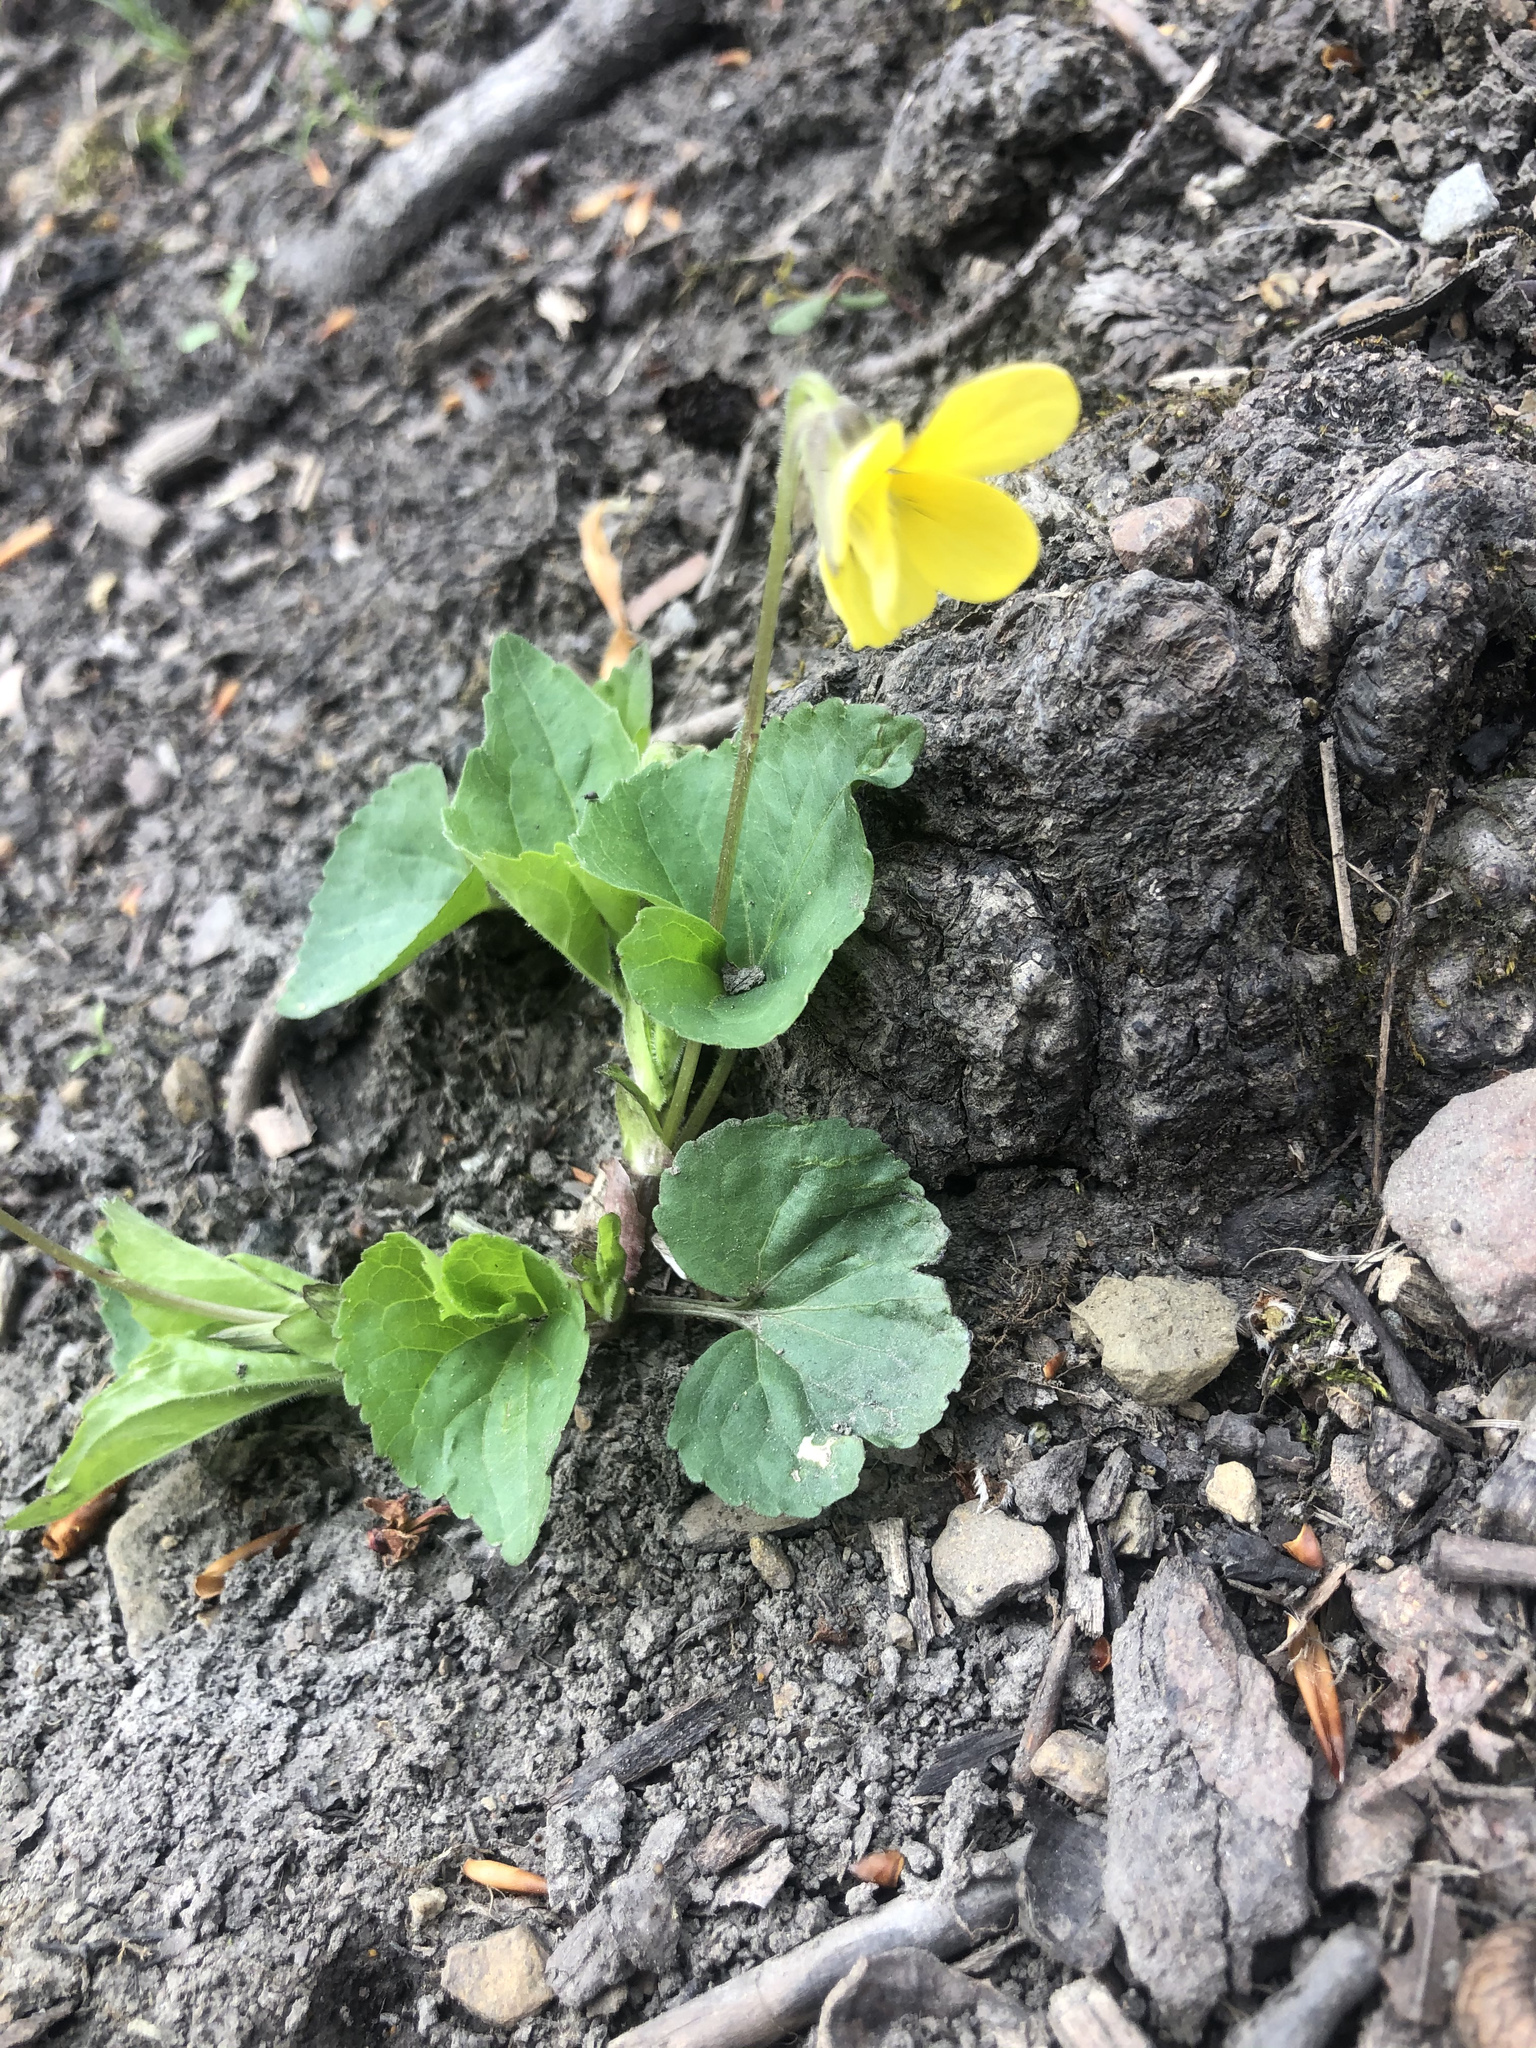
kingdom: Plantae
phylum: Tracheophyta
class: Magnoliopsida
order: Malpighiales
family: Violaceae
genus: Viola
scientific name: Viola eriocarpa
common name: Smooth yellow violet
